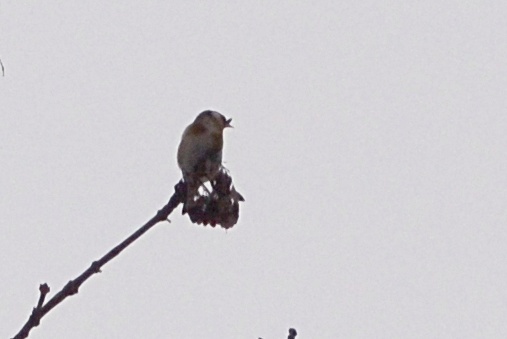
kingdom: Animalia
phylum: Chordata
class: Aves
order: Passeriformes
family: Fringillidae
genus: Carduelis
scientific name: Carduelis carduelis
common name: European goldfinch
